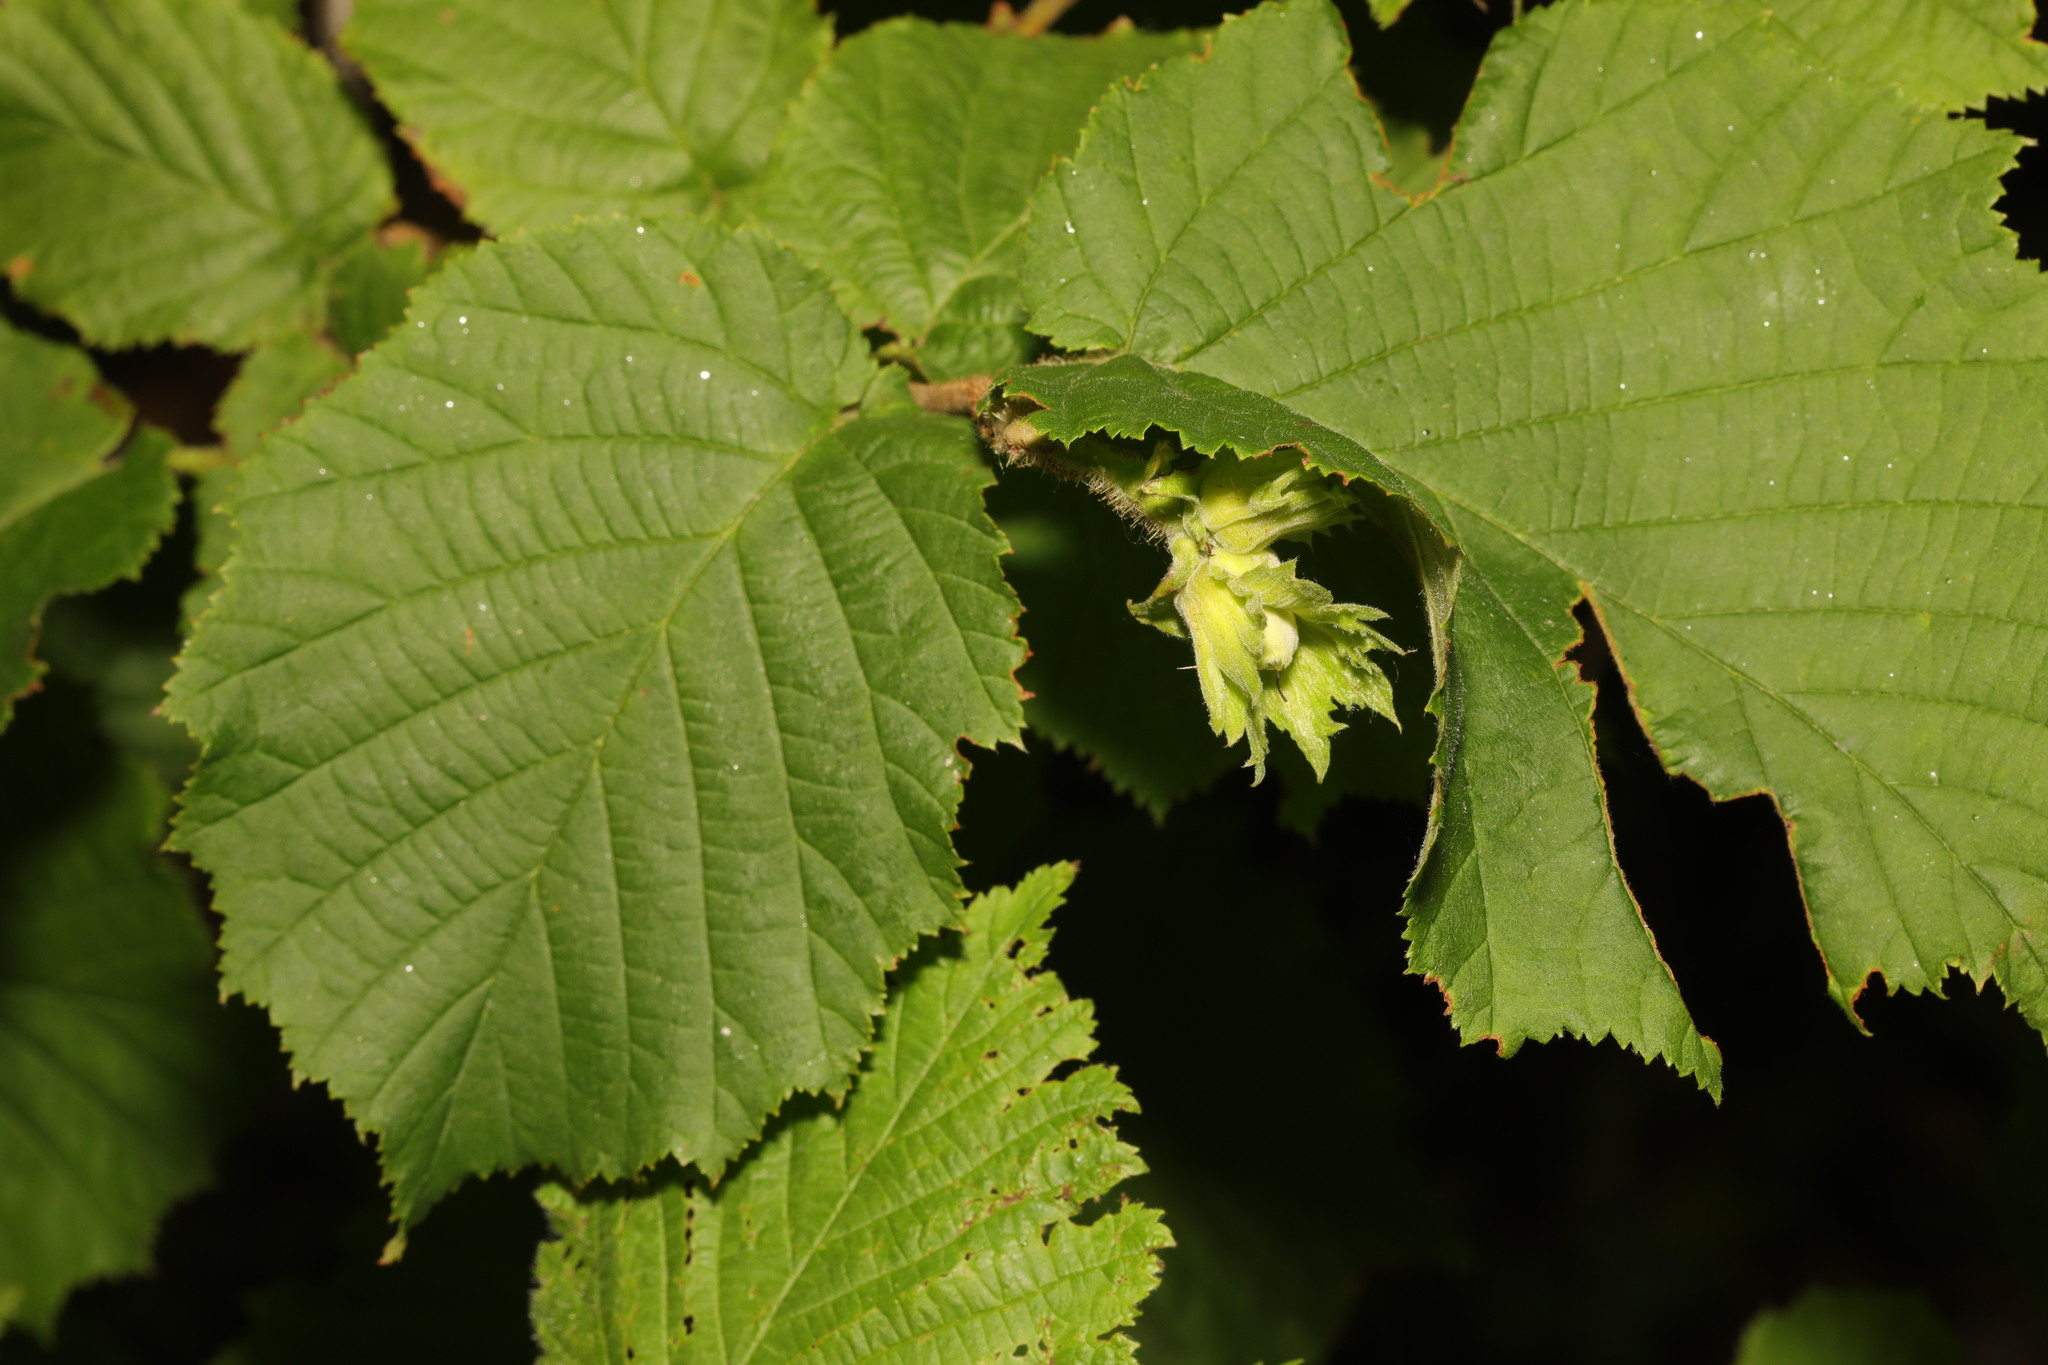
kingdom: Plantae
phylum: Tracheophyta
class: Magnoliopsida
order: Fagales
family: Betulaceae
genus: Corylus
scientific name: Corylus avellana
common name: European hazel
